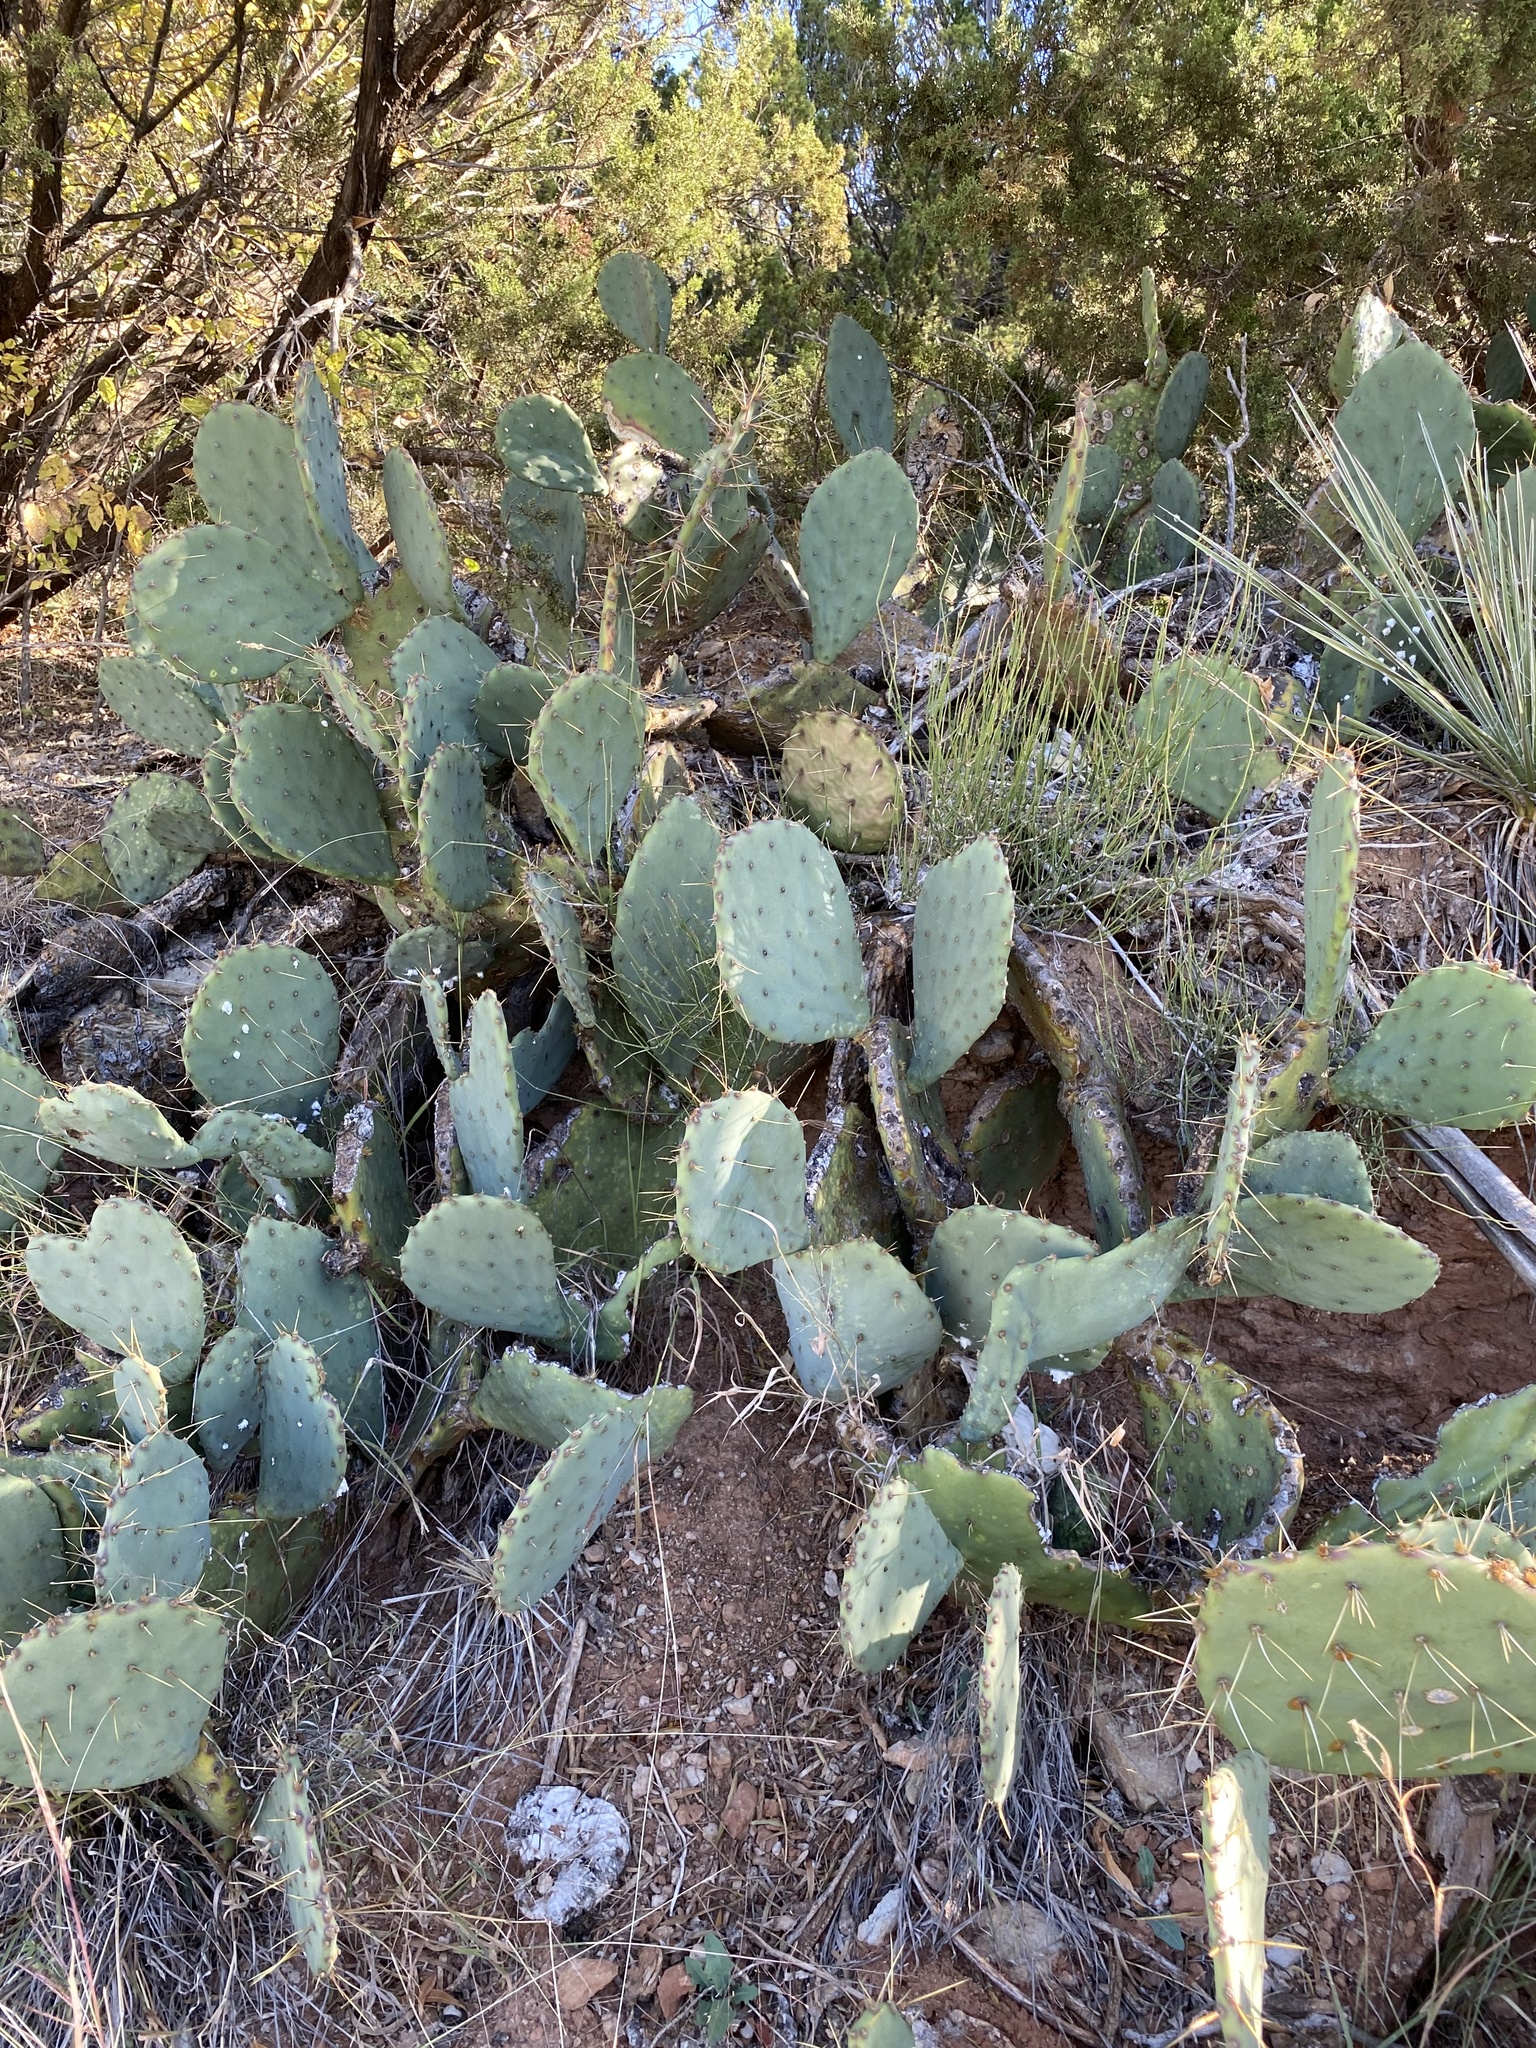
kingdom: Plantae
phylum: Tracheophyta
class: Magnoliopsida
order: Caryophyllales
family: Cactaceae
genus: Opuntia
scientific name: Opuntia engelmannii
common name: Cactus-apple
